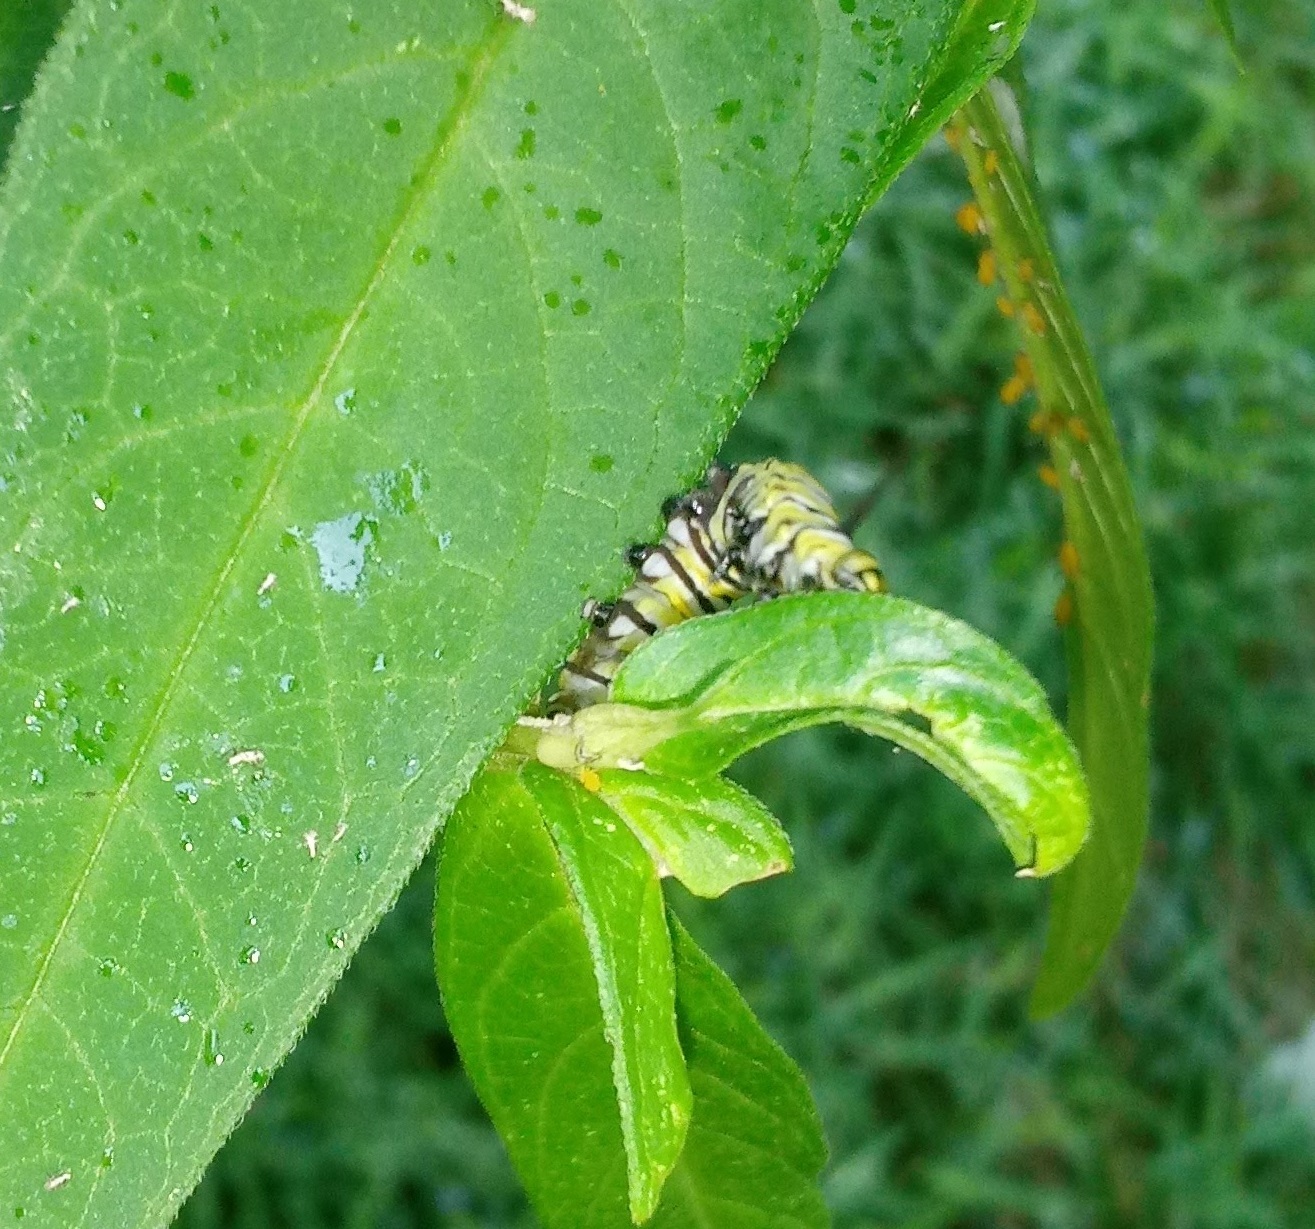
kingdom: Animalia
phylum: Arthropoda
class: Insecta
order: Lepidoptera
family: Nymphalidae
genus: Danaus
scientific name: Danaus plexippus
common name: Monarch
